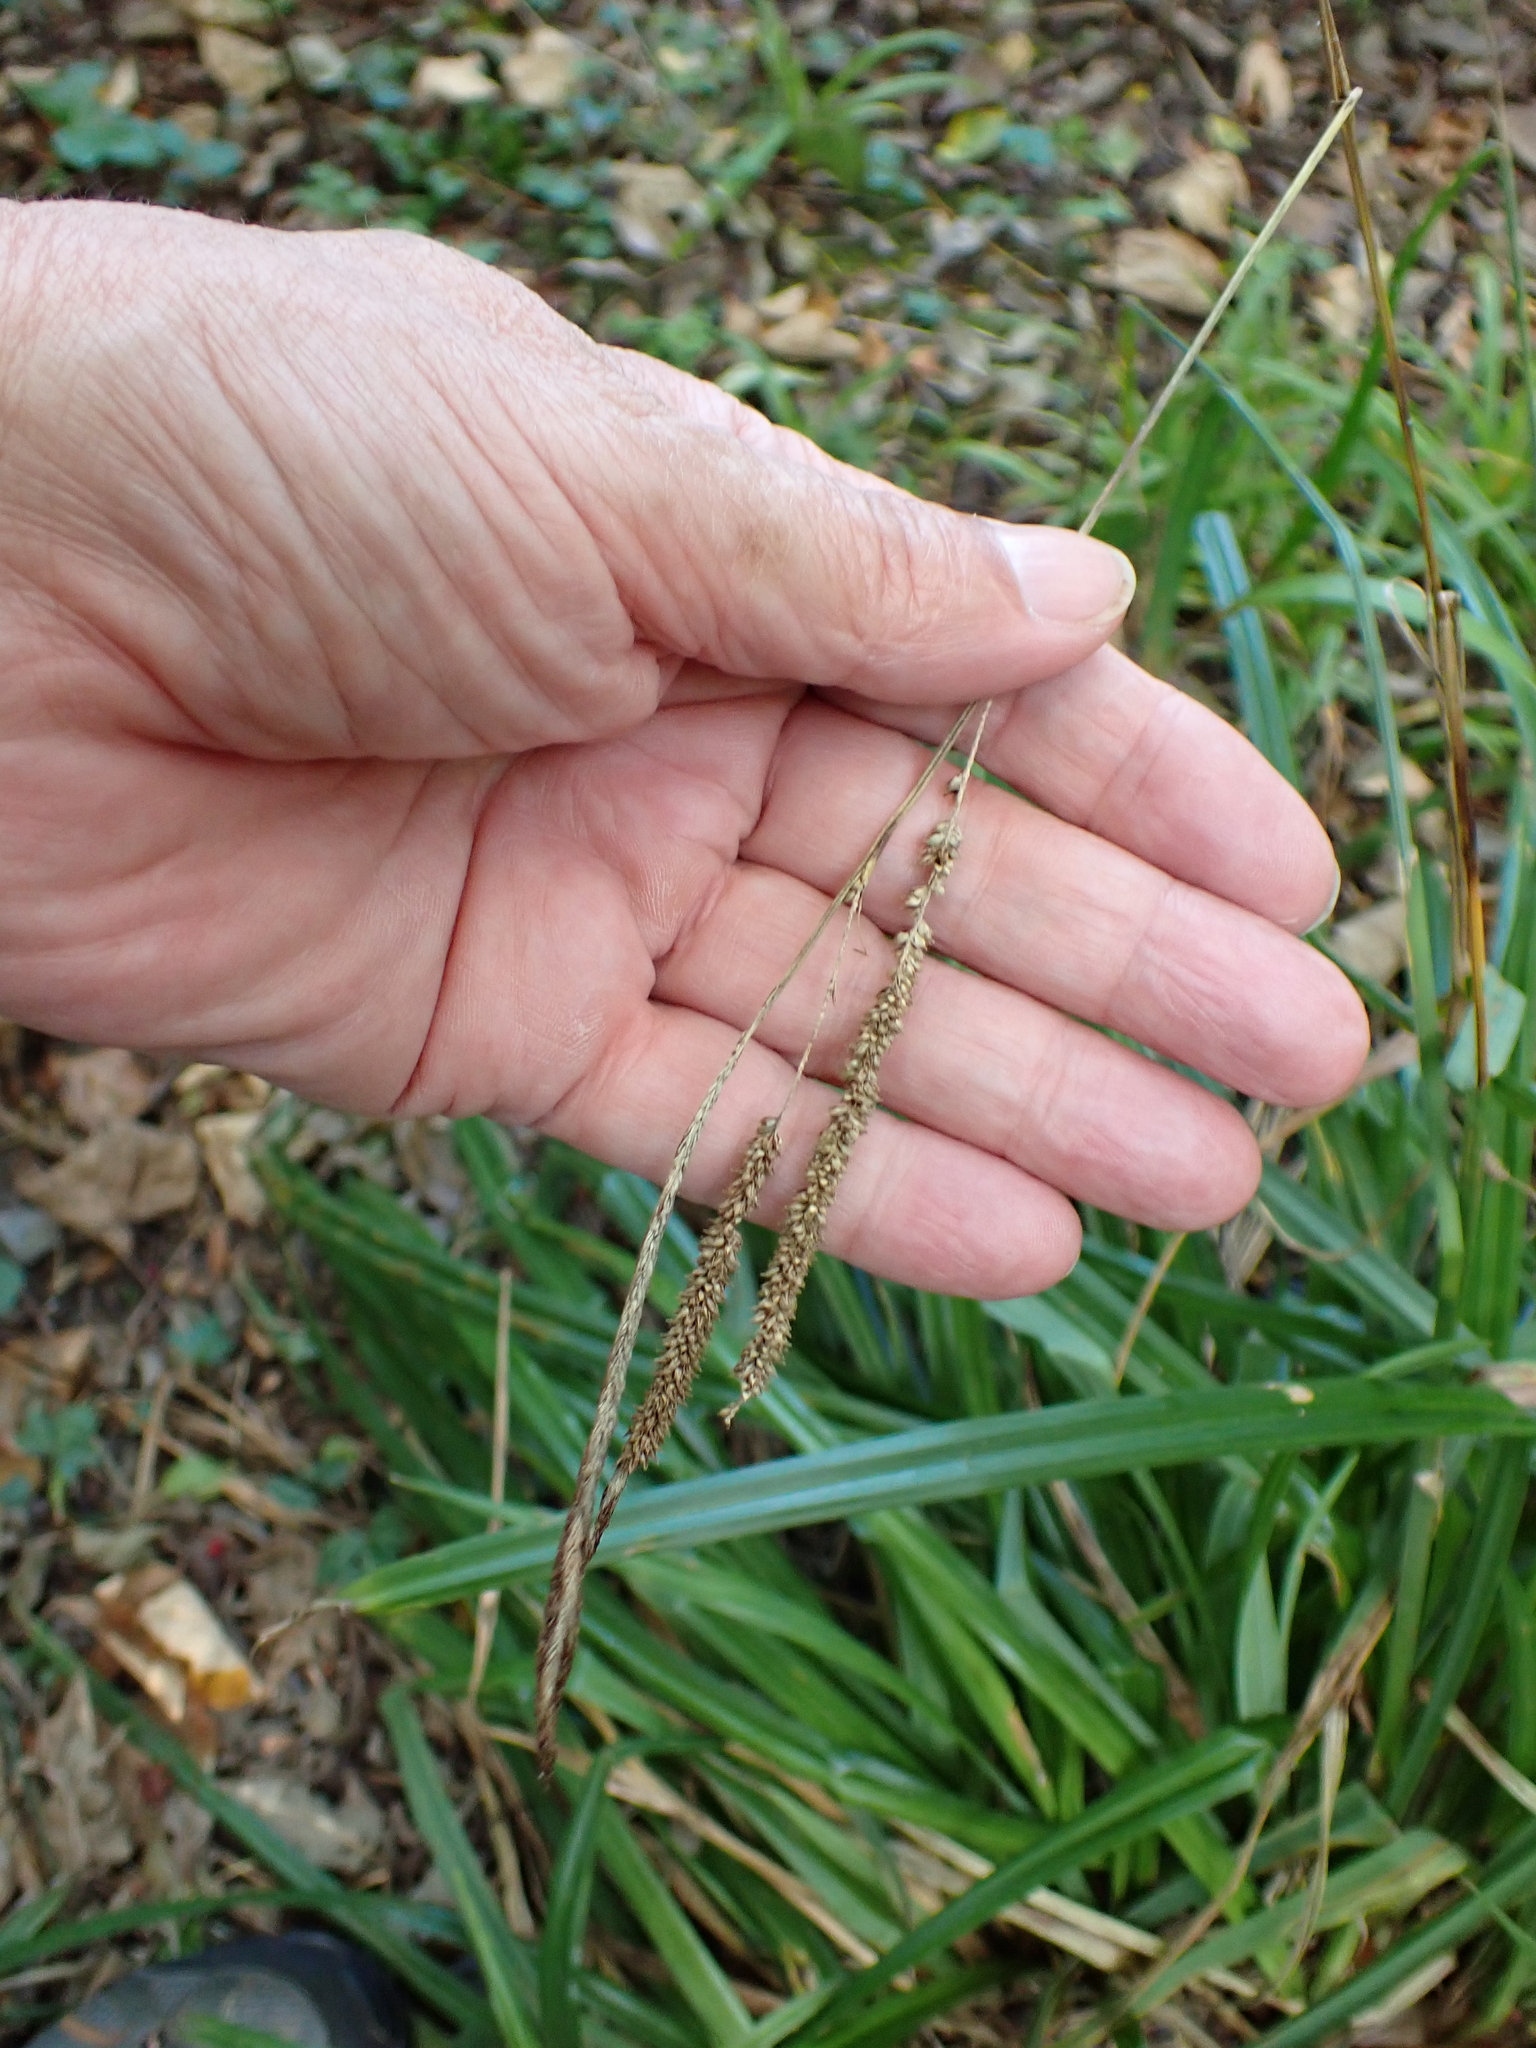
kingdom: Plantae
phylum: Tracheophyta
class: Liliopsida
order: Poales
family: Cyperaceae
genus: Carex
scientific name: Carex pendula
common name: Pendulous sedge
